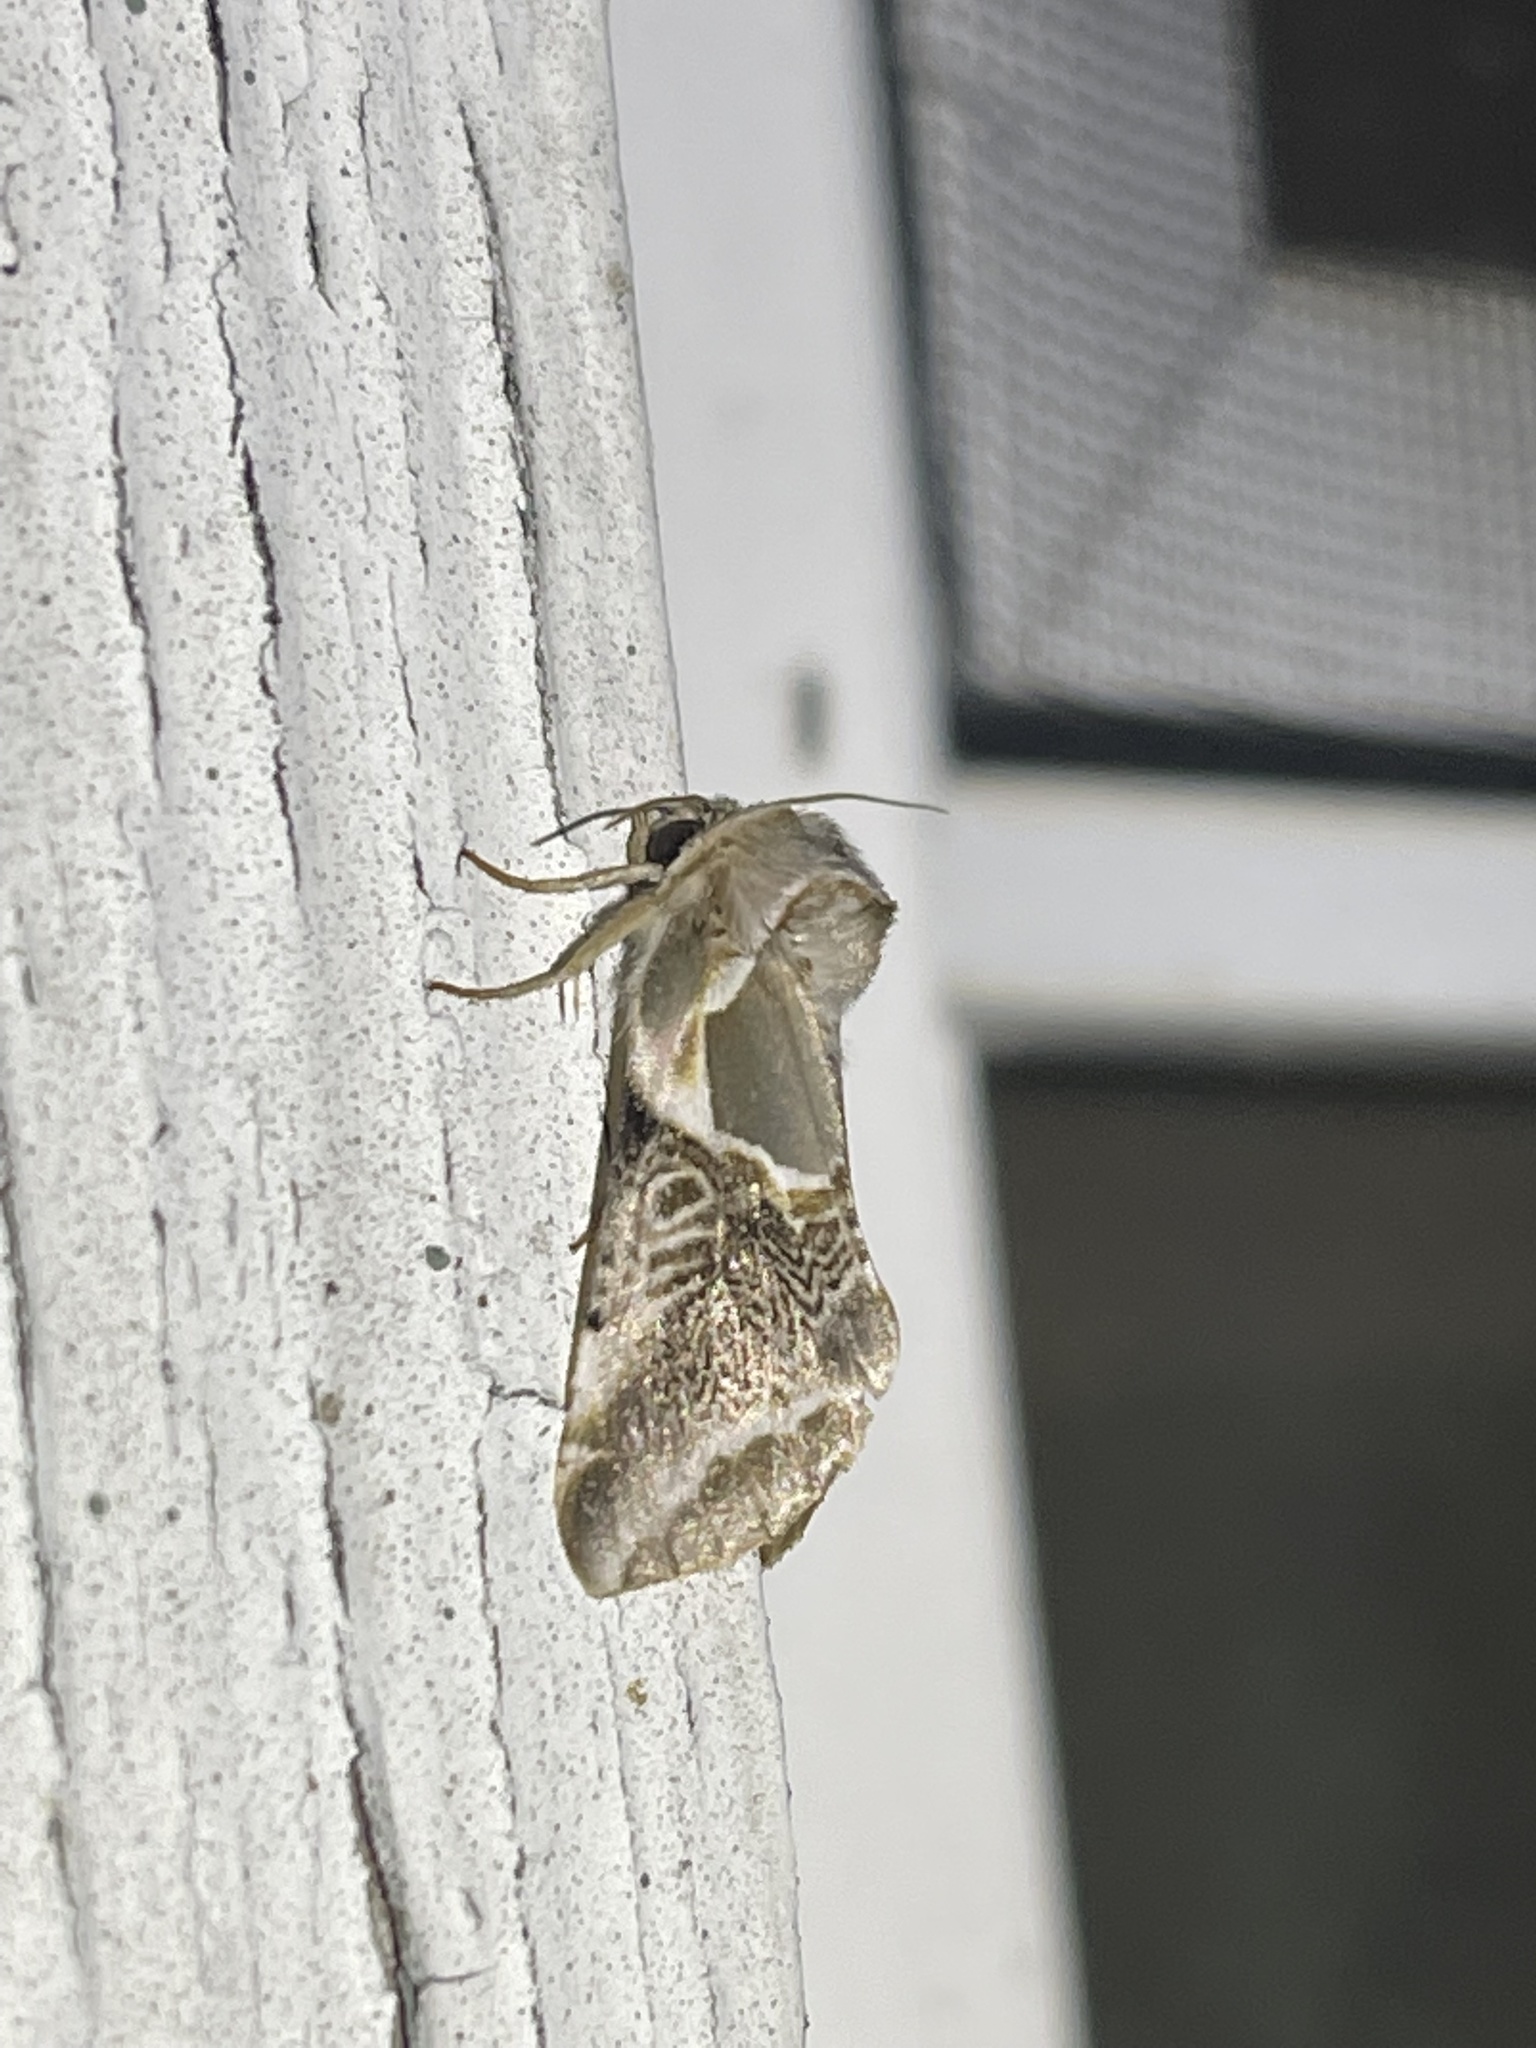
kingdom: Animalia
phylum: Arthropoda
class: Insecta
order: Lepidoptera
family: Drepanidae
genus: Habrosyne
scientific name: Habrosyne scripta
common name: Lettered habrosyne moth
